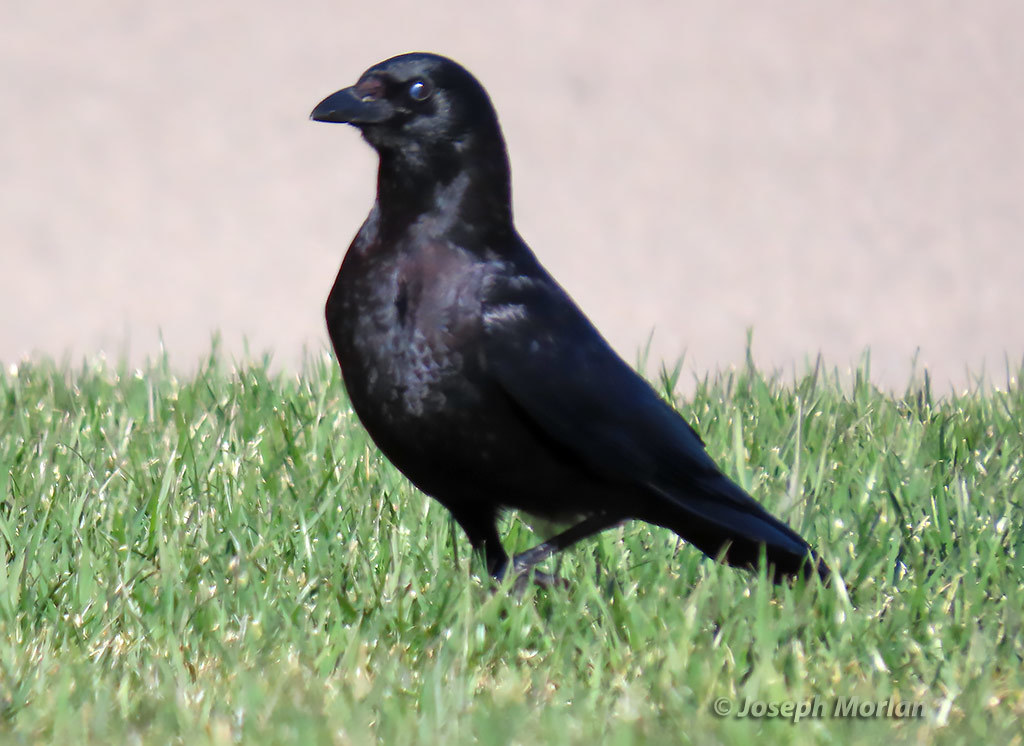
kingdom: Animalia
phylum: Chordata
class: Aves
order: Passeriformes
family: Corvidae
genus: Corvus
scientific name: Corvus brachyrhynchos
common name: American crow
